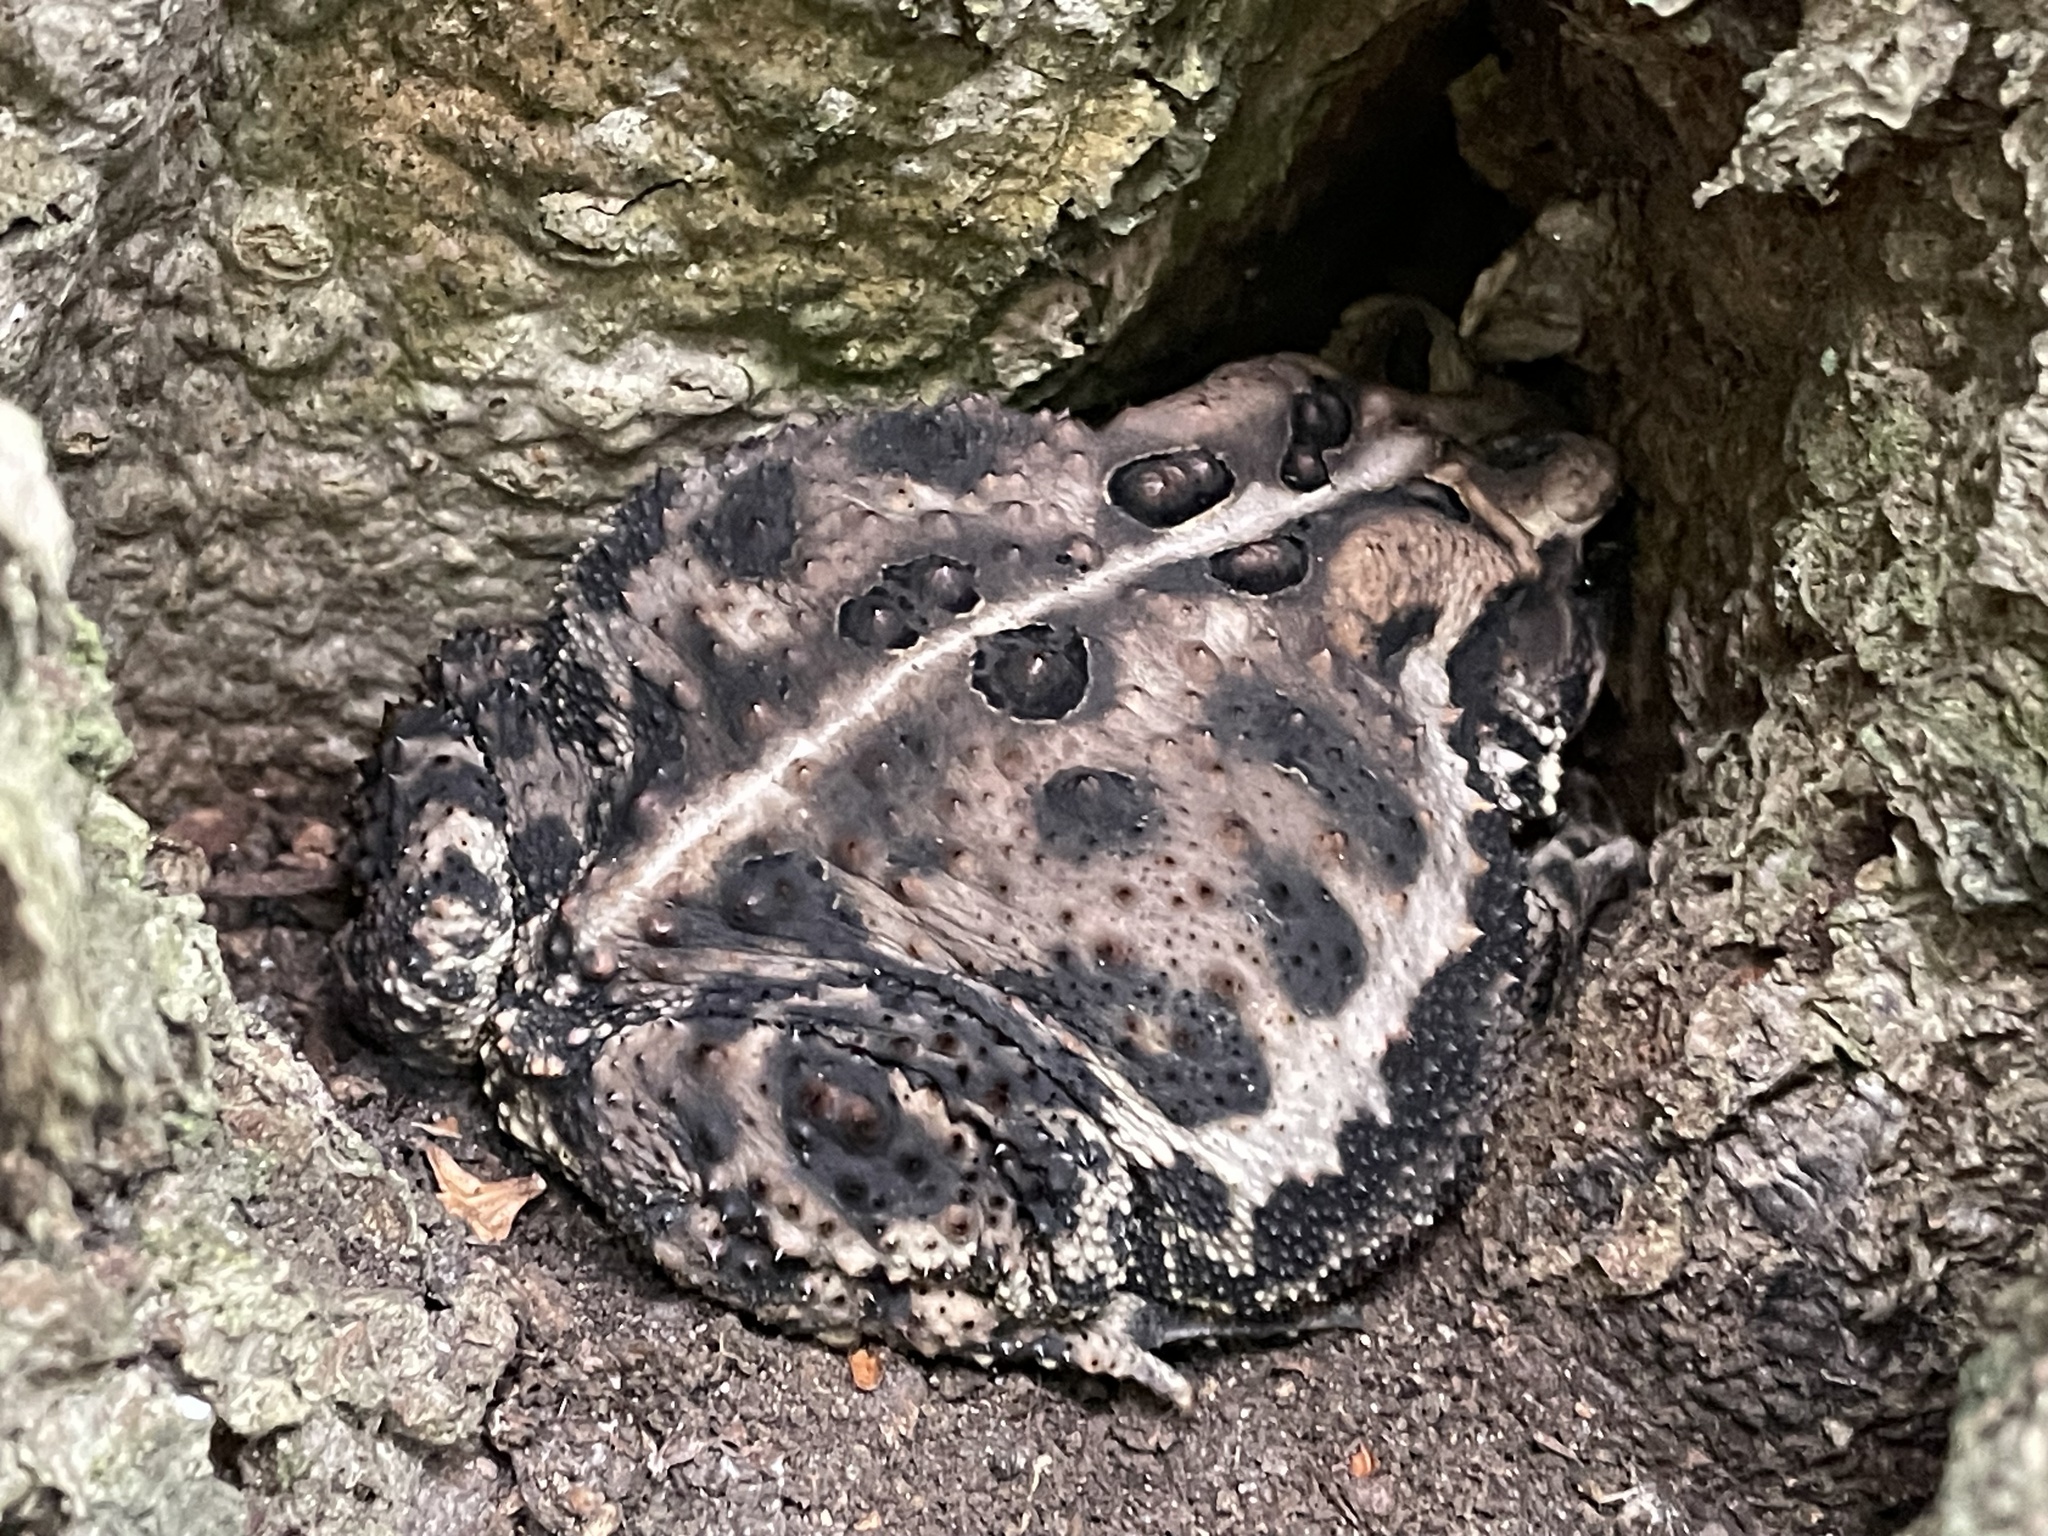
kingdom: Animalia
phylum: Chordata
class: Amphibia
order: Anura
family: Bufonidae
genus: Anaxyrus
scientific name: Anaxyrus americanus
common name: American toad
